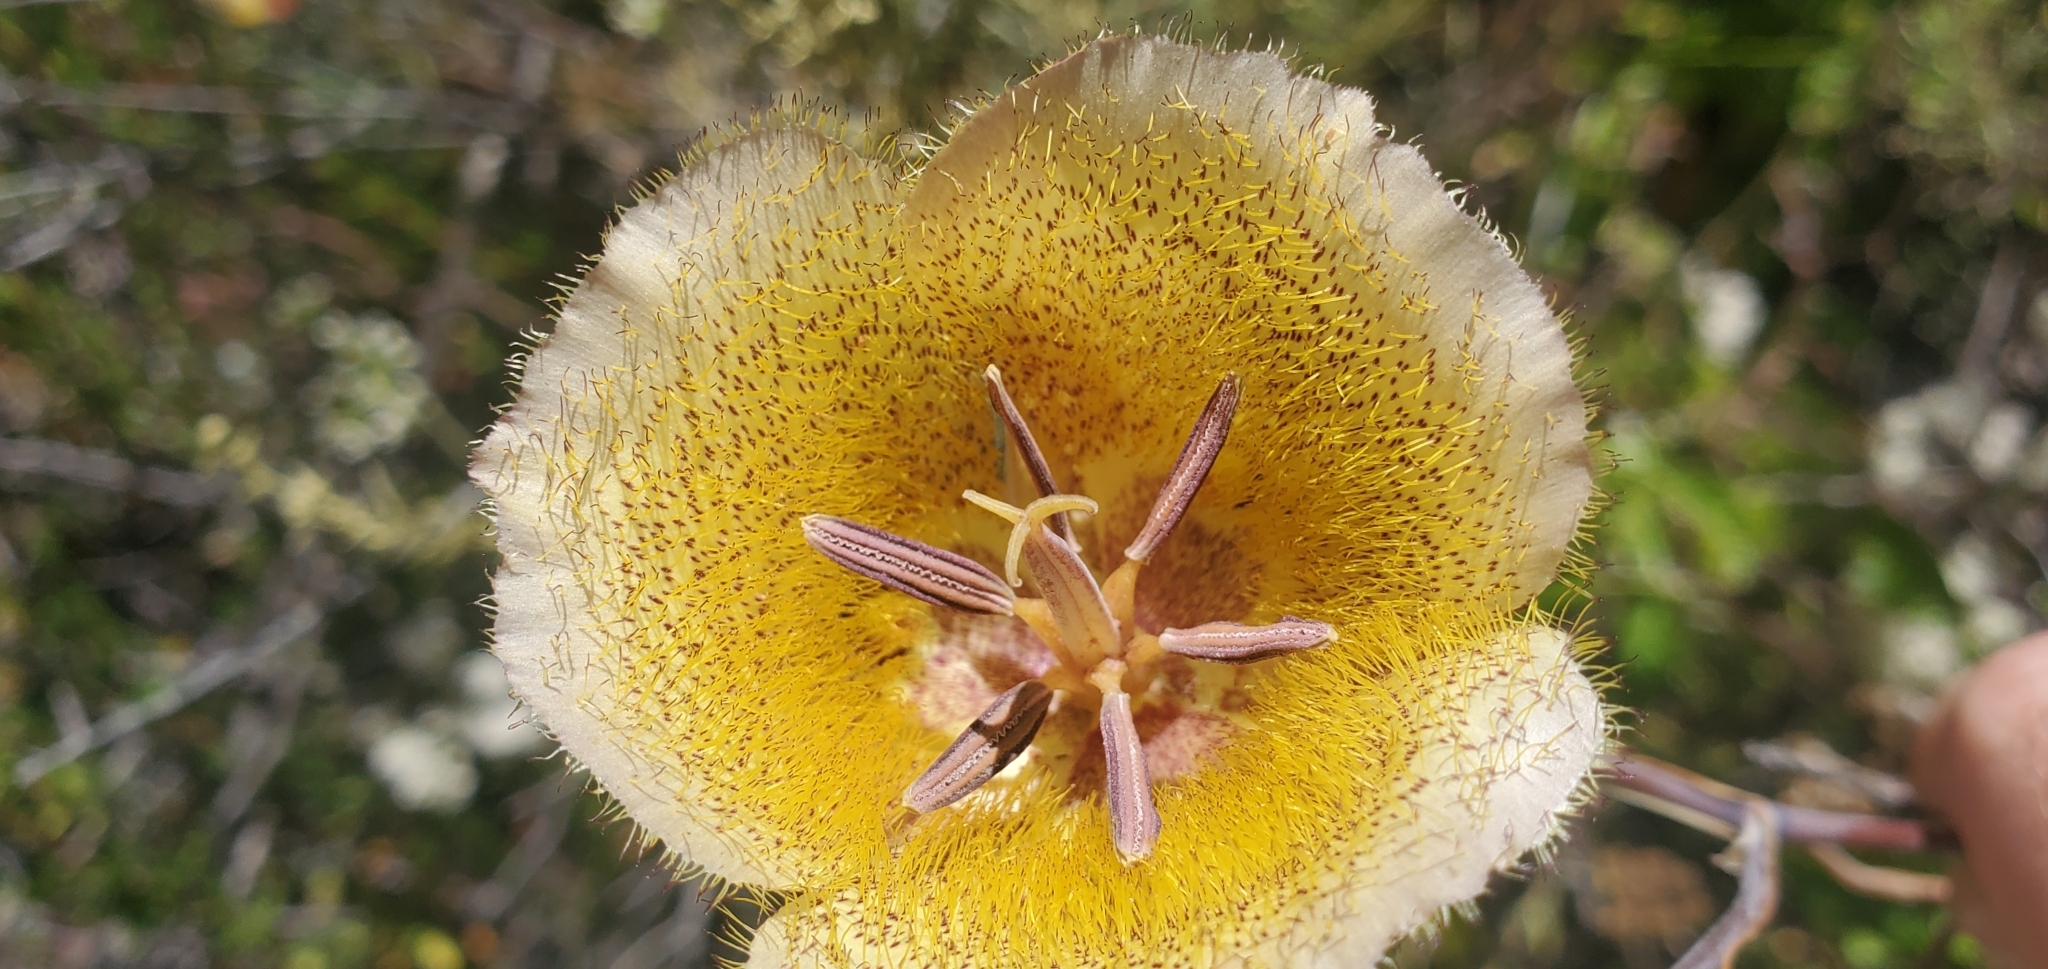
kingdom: Plantae
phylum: Tracheophyta
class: Liliopsida
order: Liliales
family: Liliaceae
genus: Calochortus
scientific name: Calochortus weedii
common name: Weed's mariposa-lily
